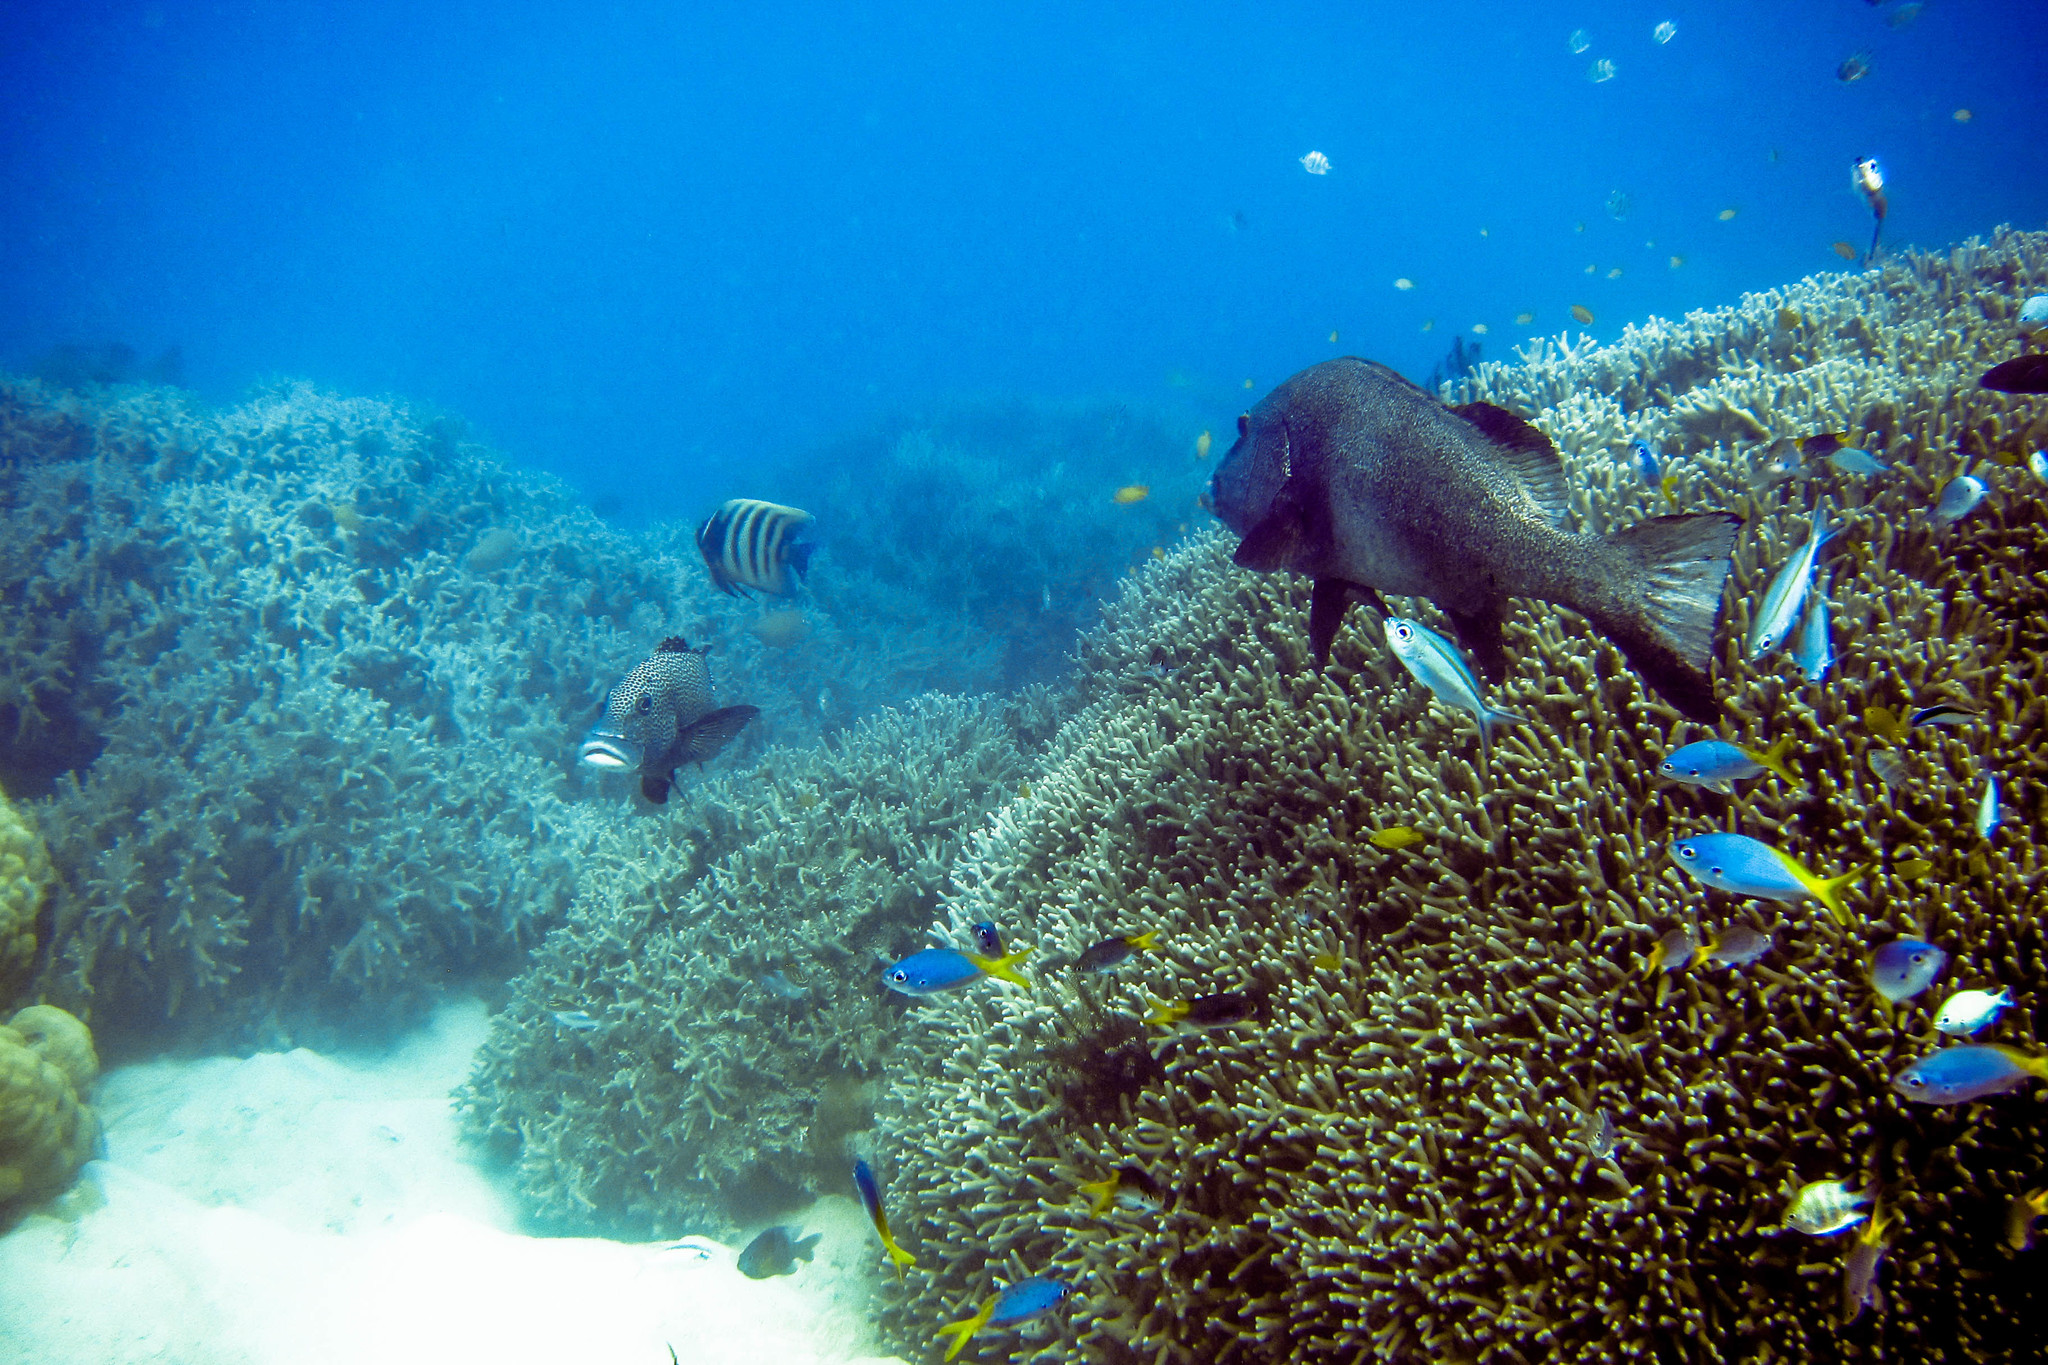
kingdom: Animalia
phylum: Chordata
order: Perciformes
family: Pomacanthidae
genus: Pomacanthus
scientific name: Pomacanthus sexstriatus
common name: Six-banded angelfish
